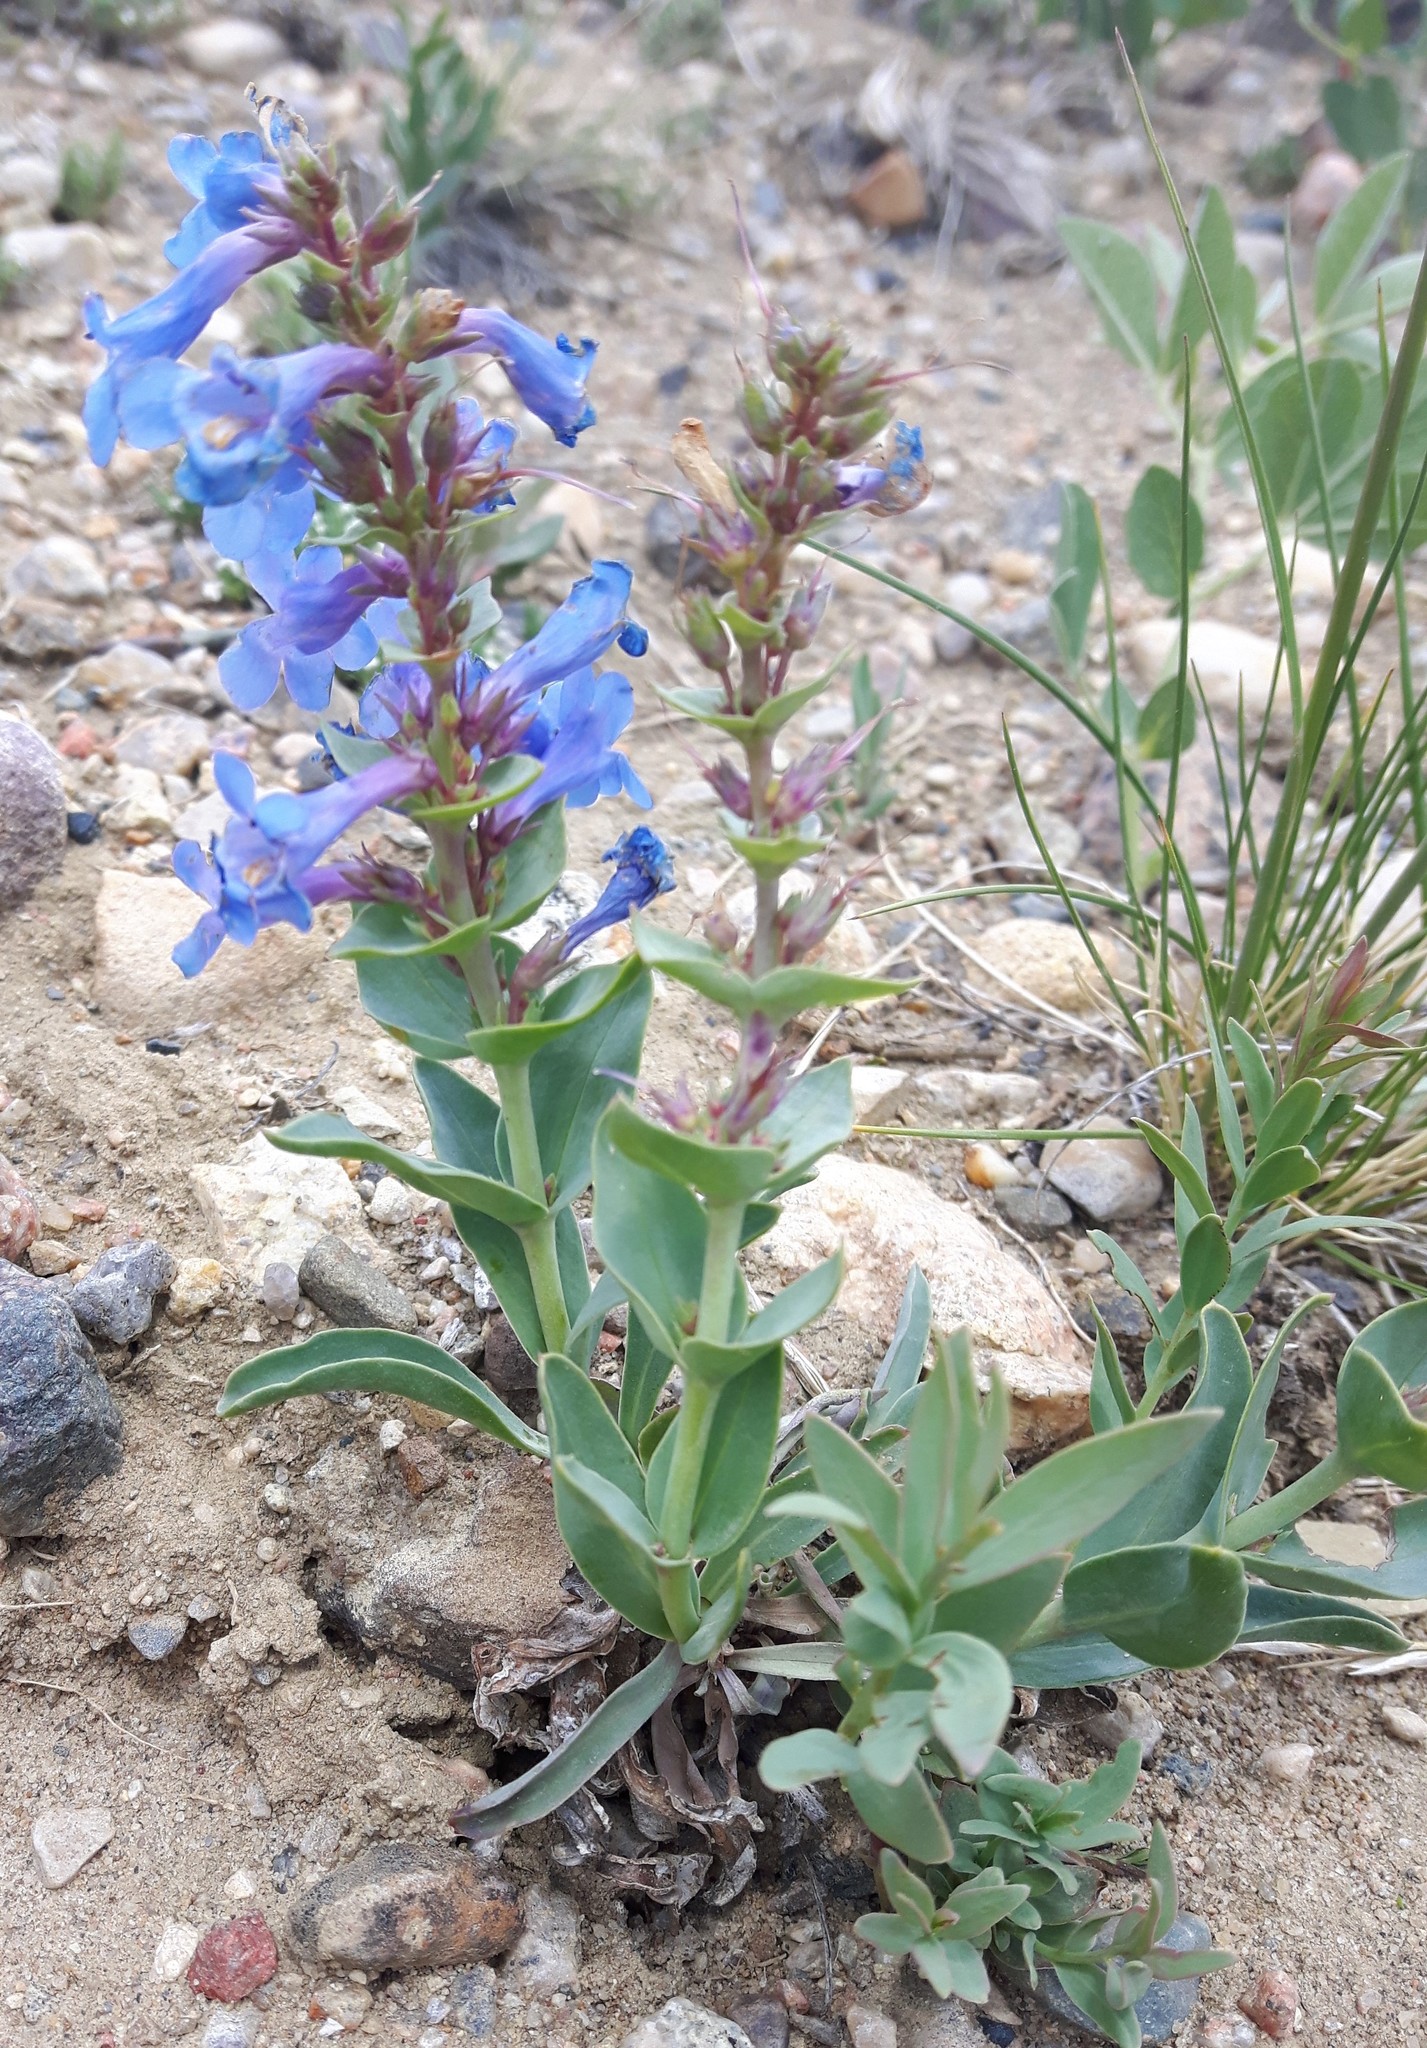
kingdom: Plantae
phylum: Tracheophyta
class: Magnoliopsida
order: Lamiales
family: Plantaginaceae
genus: Penstemon
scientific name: Penstemon nitidus
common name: Shining penstemon
